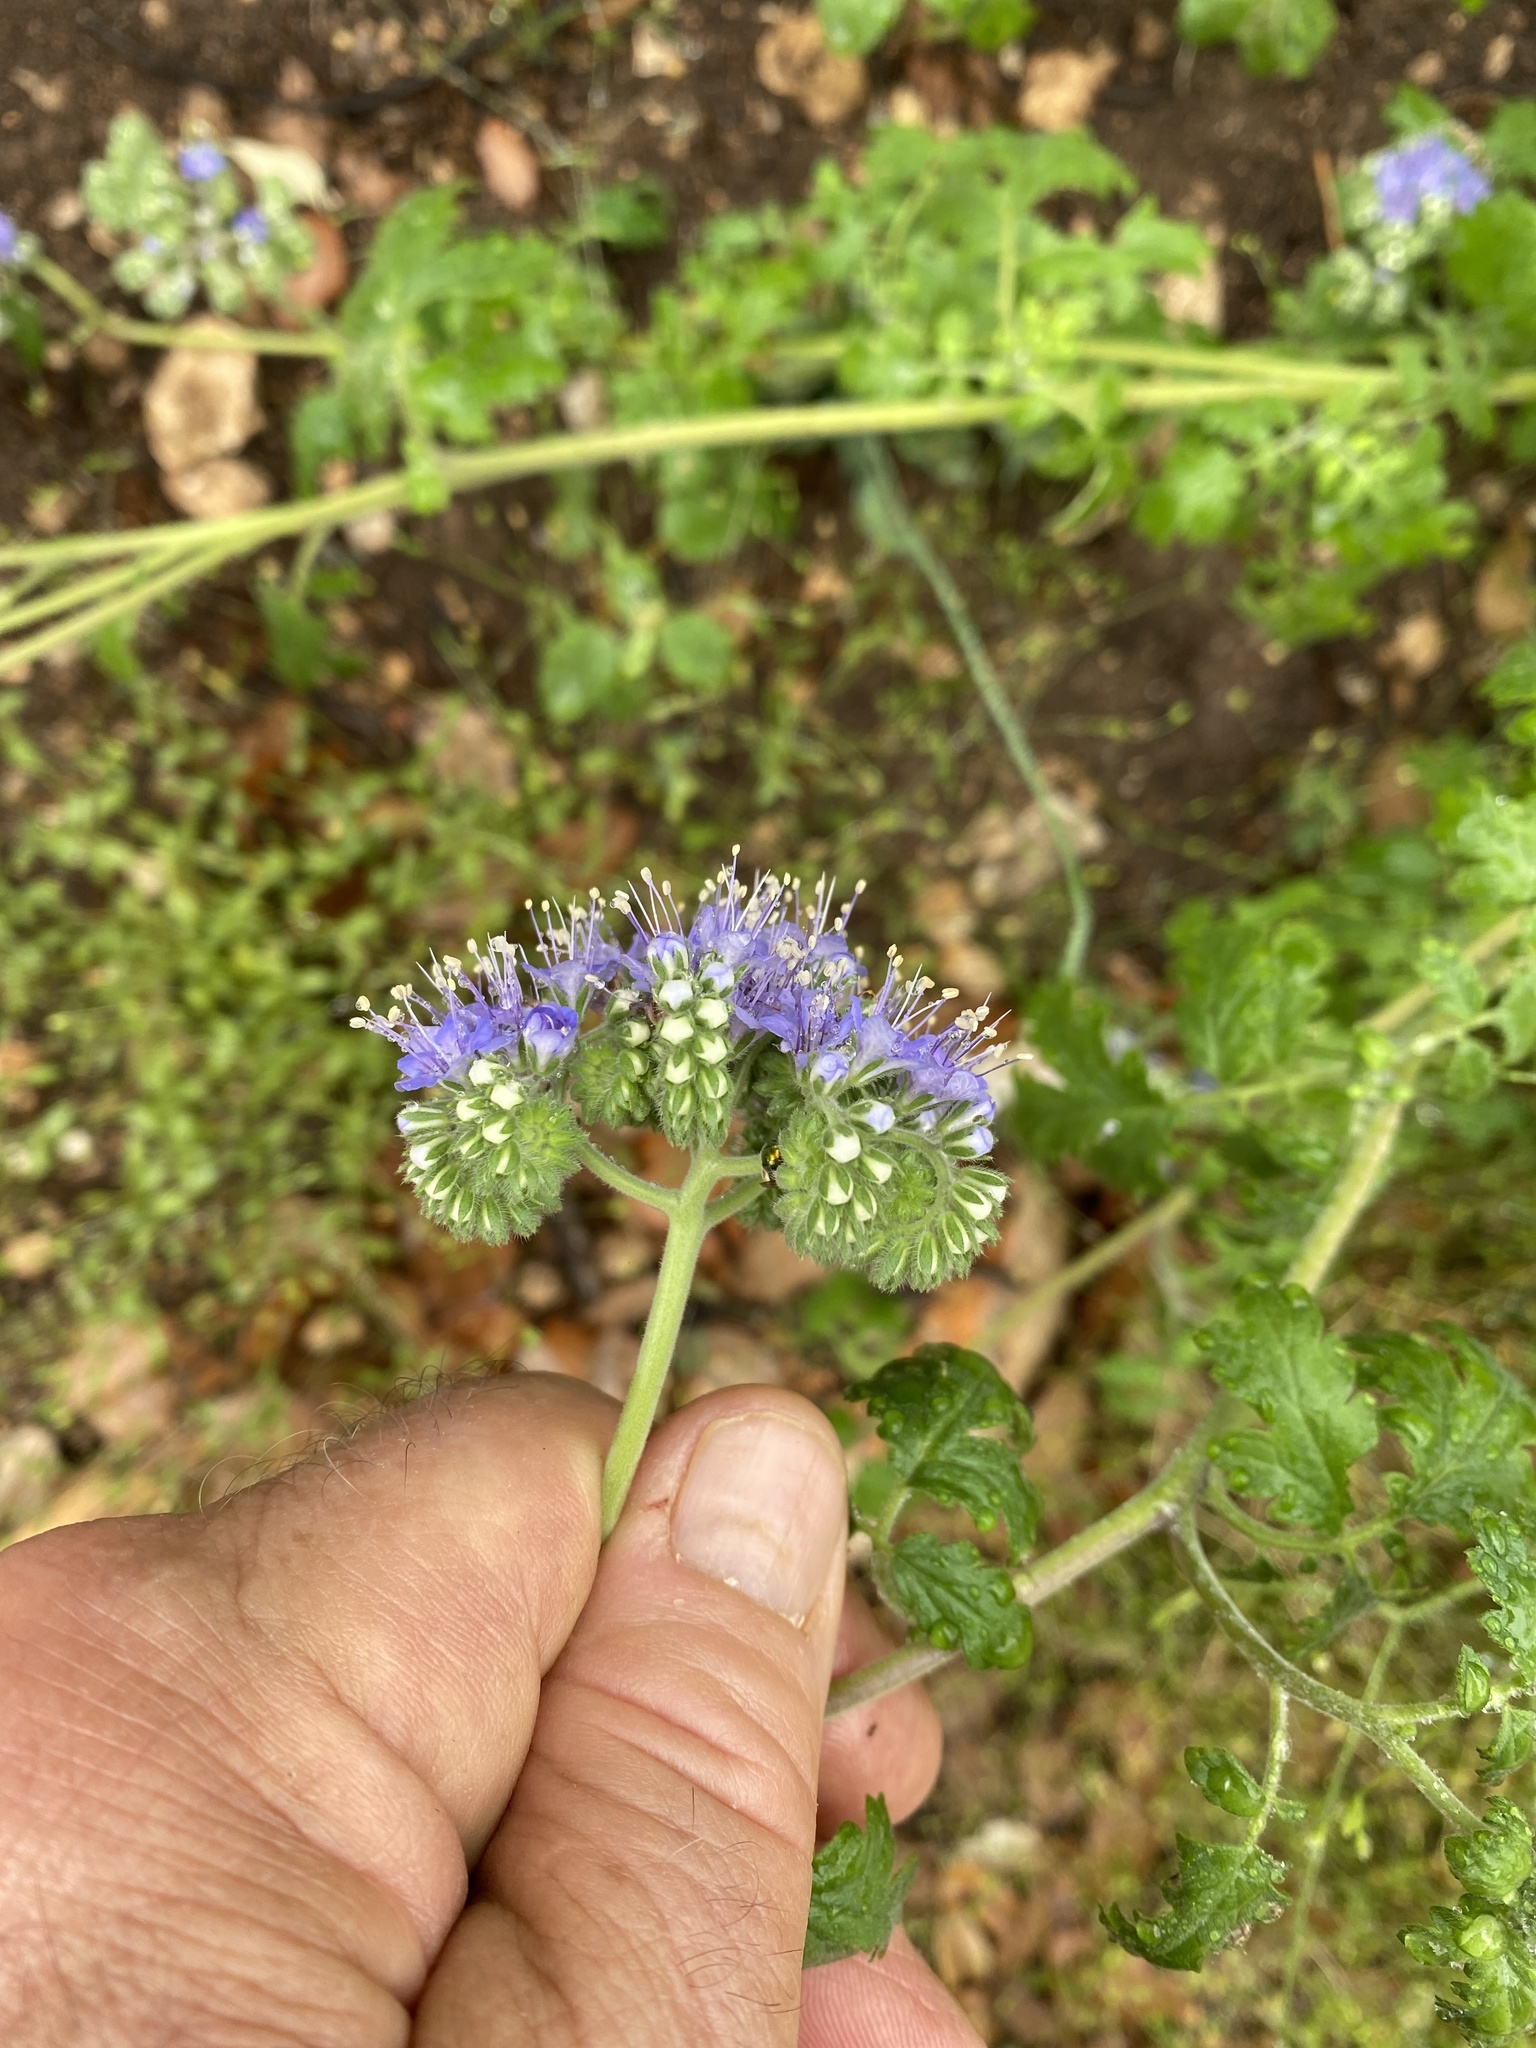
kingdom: Plantae
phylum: Tracheophyta
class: Magnoliopsida
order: Boraginales
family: Hydrophyllaceae
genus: Phacelia
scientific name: Phacelia congesta
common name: Blue curls
